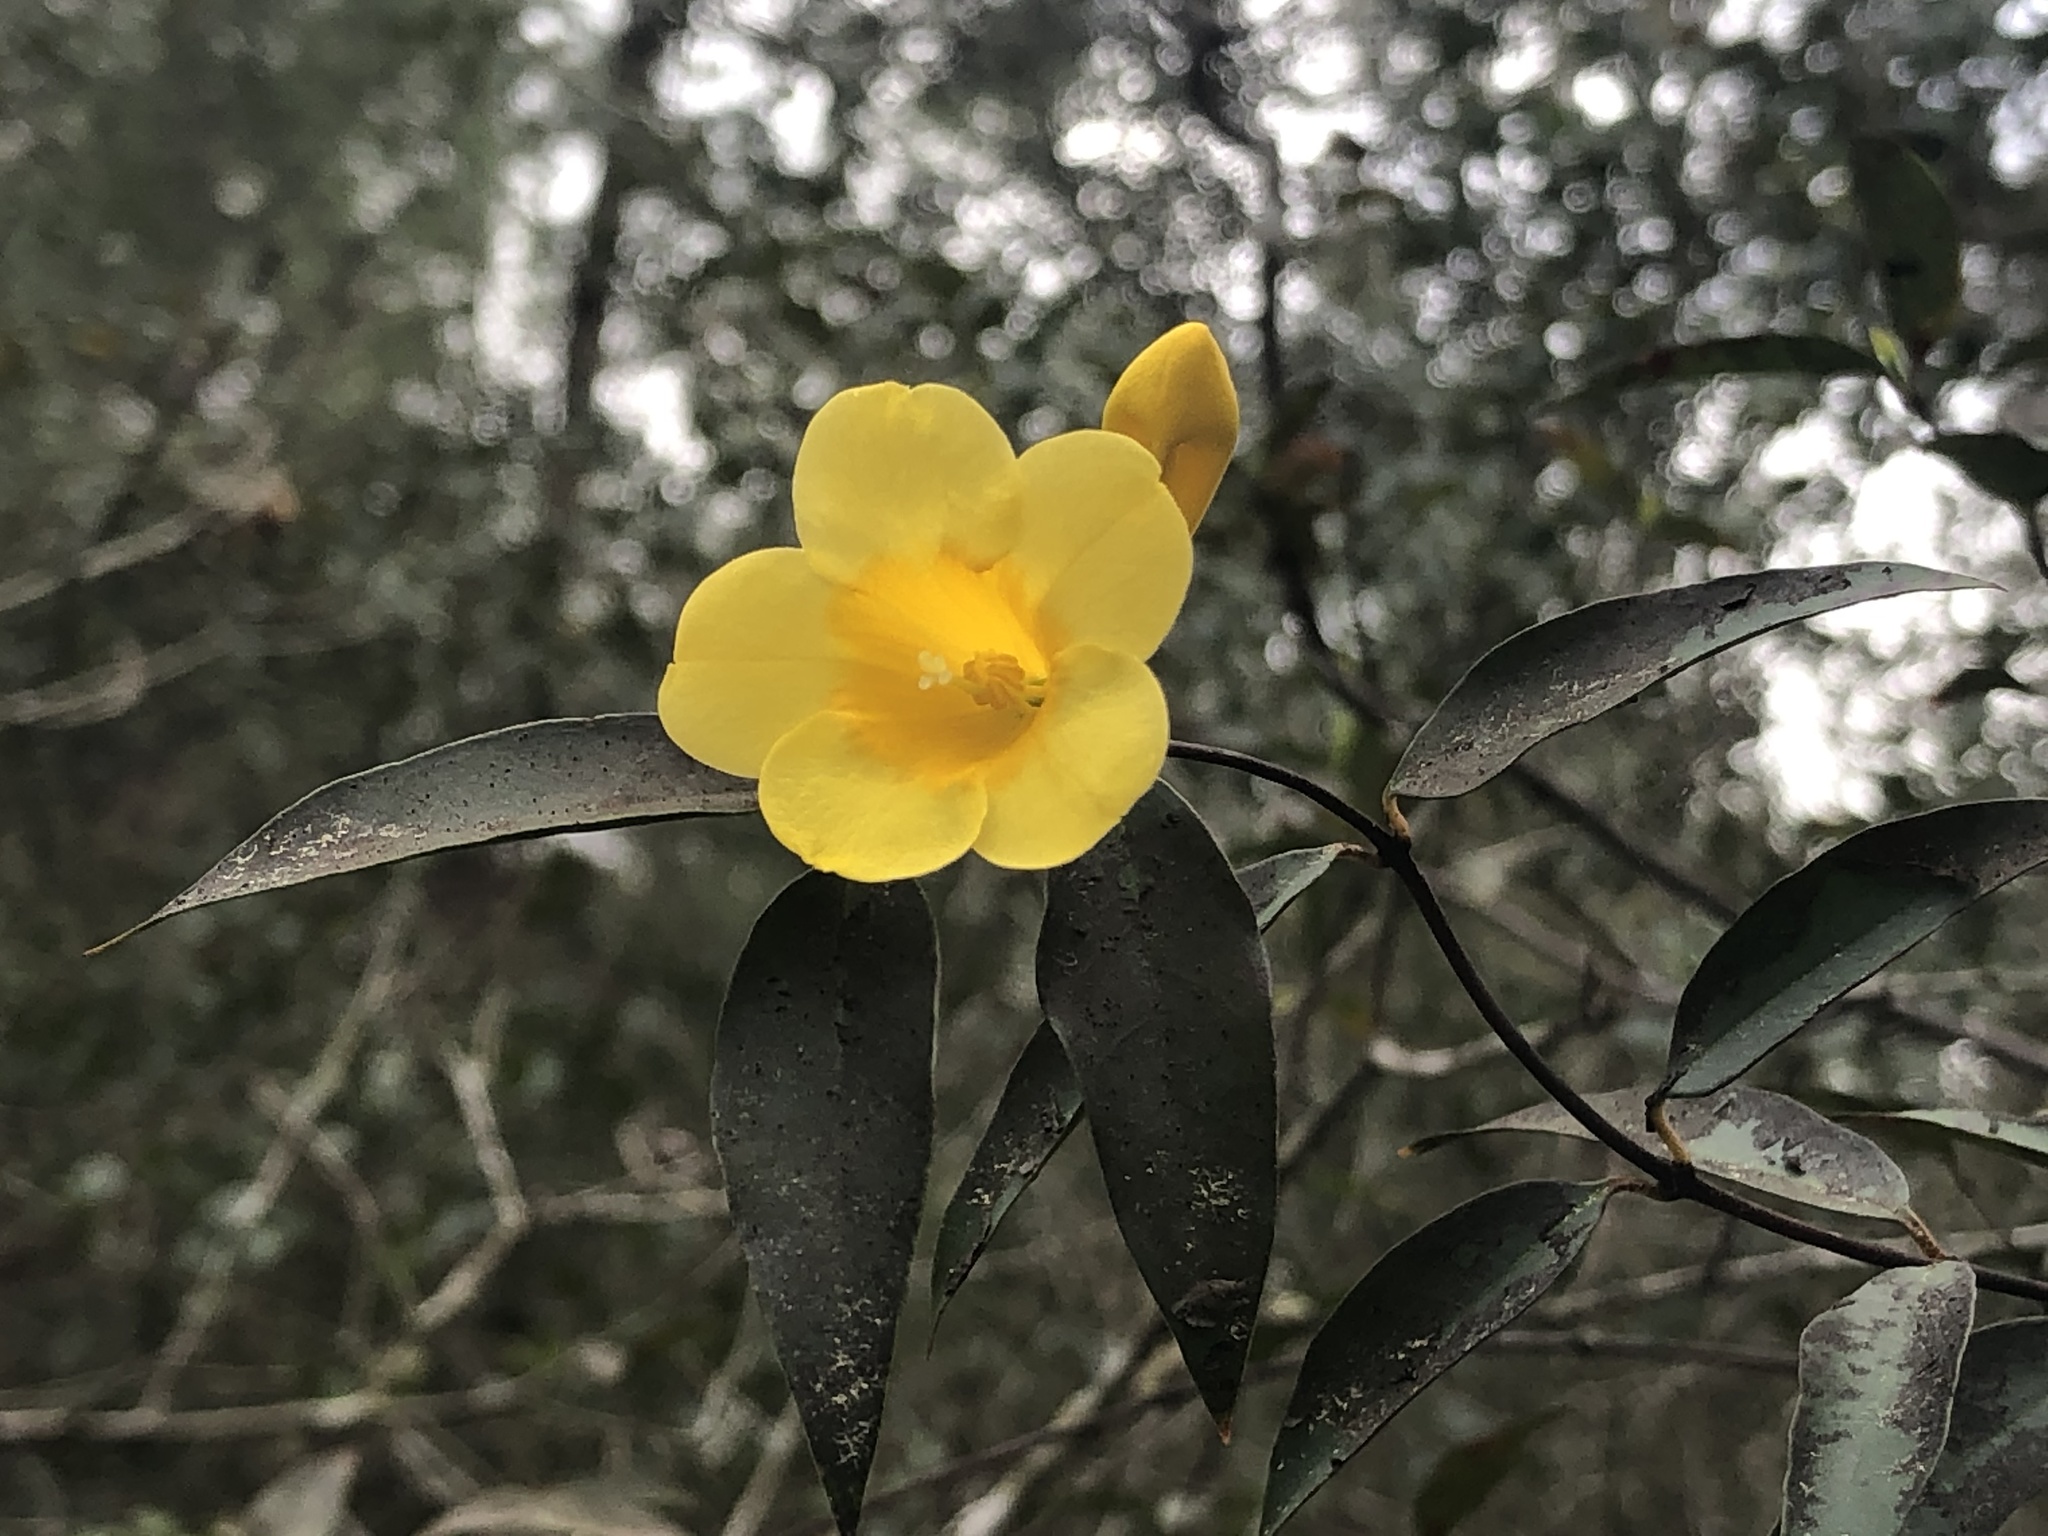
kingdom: Plantae
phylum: Tracheophyta
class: Magnoliopsida
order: Gentianales
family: Gelsemiaceae
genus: Gelsemium
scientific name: Gelsemium sempervirens
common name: Carolina-jasmine
